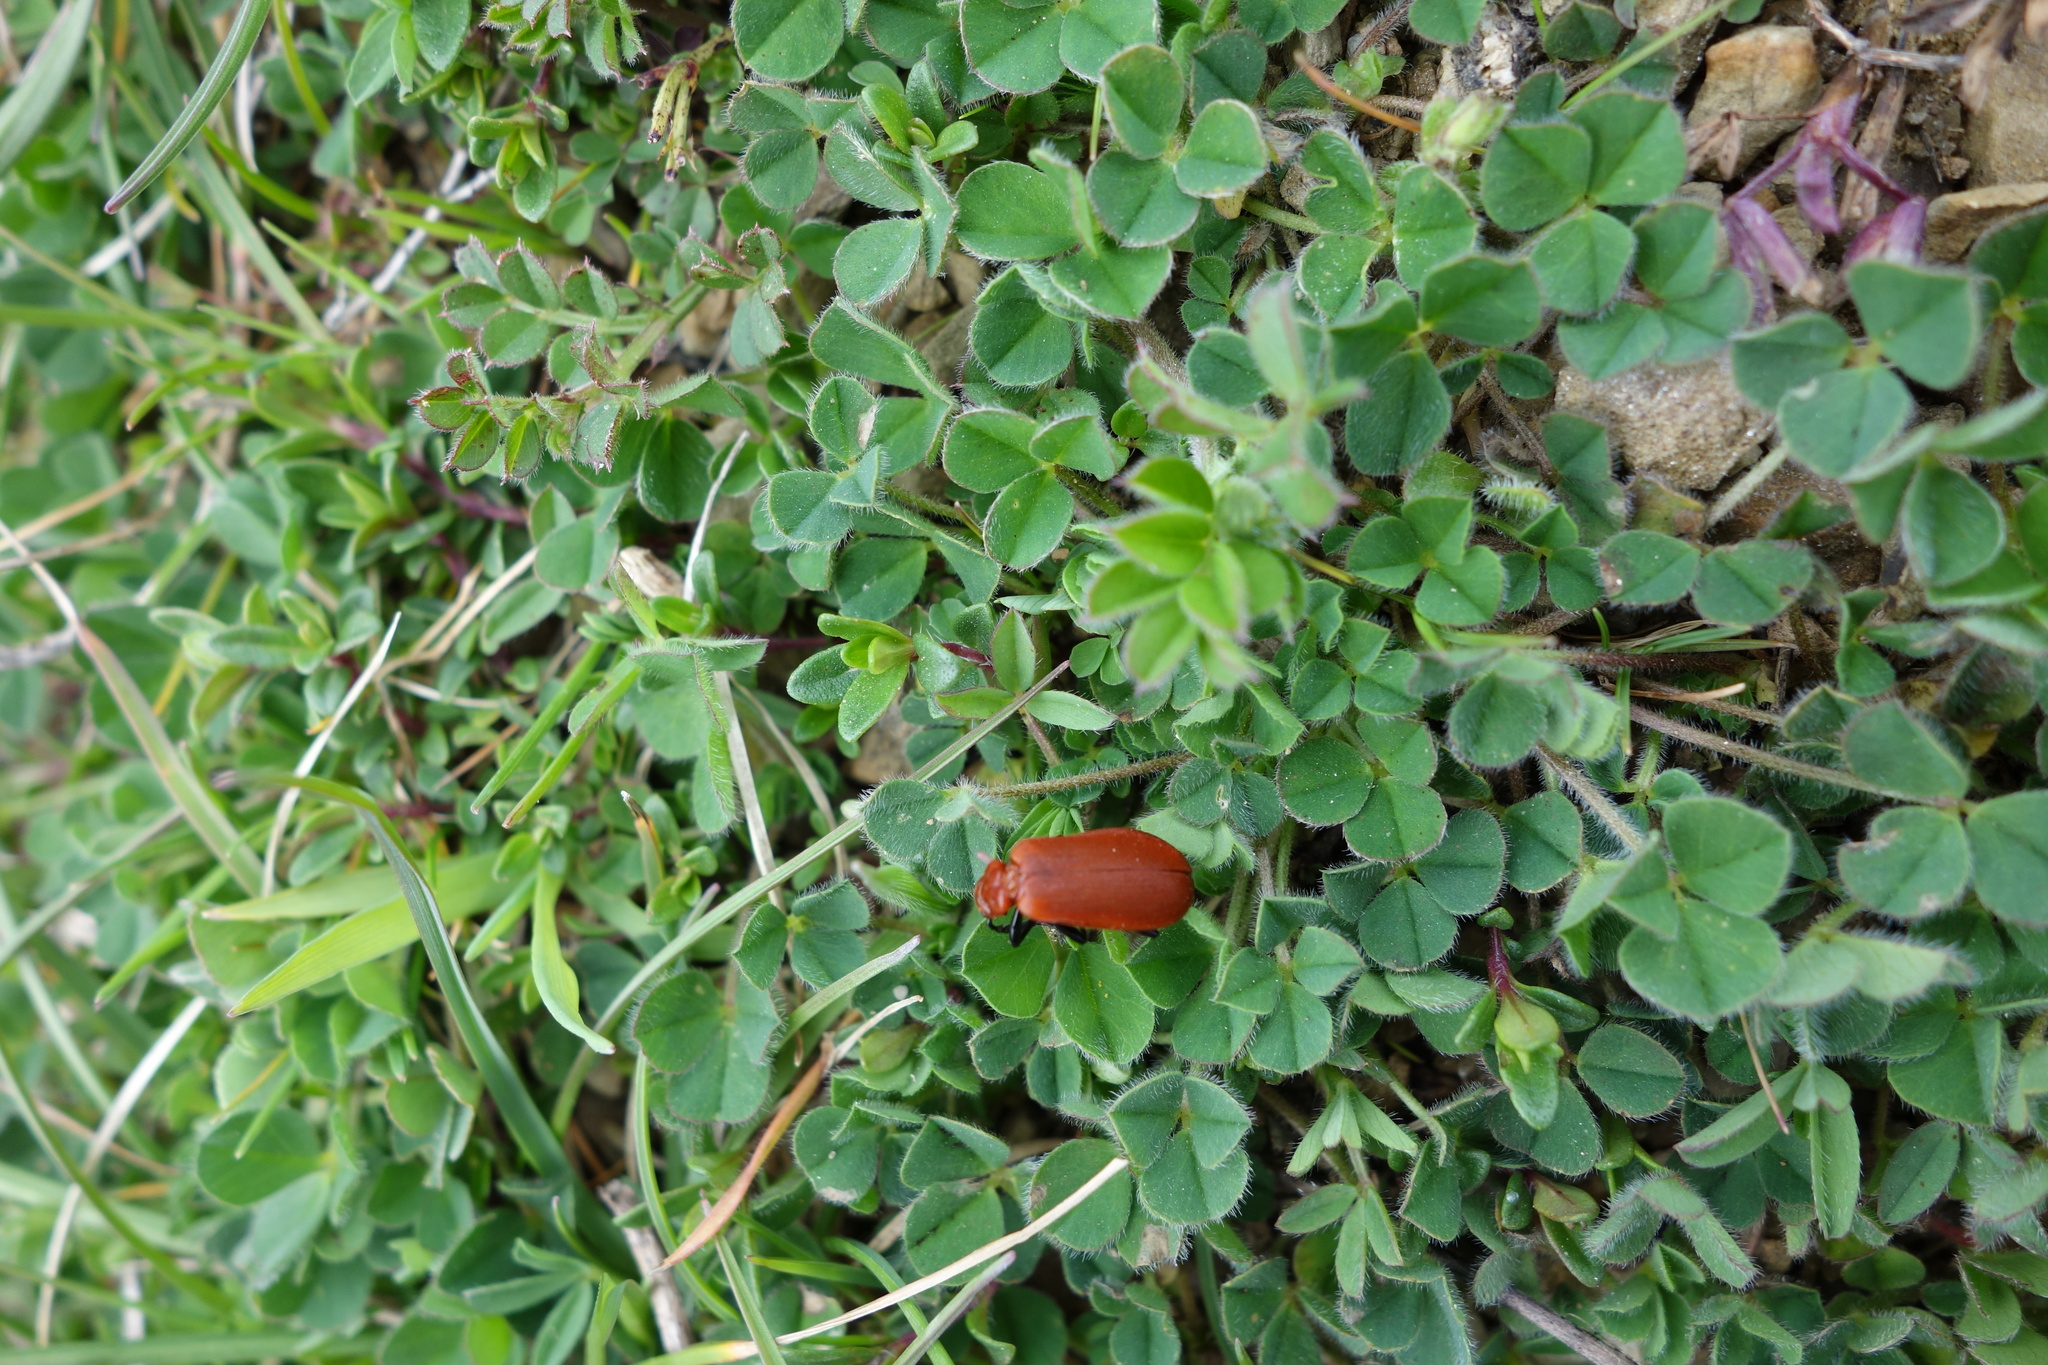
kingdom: Animalia
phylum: Arthropoda
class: Insecta
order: Coleoptera
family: Pyrochroidae
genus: Pyrochroa
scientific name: Pyrochroa serraticornis
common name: Red-headed cardinal beetle
